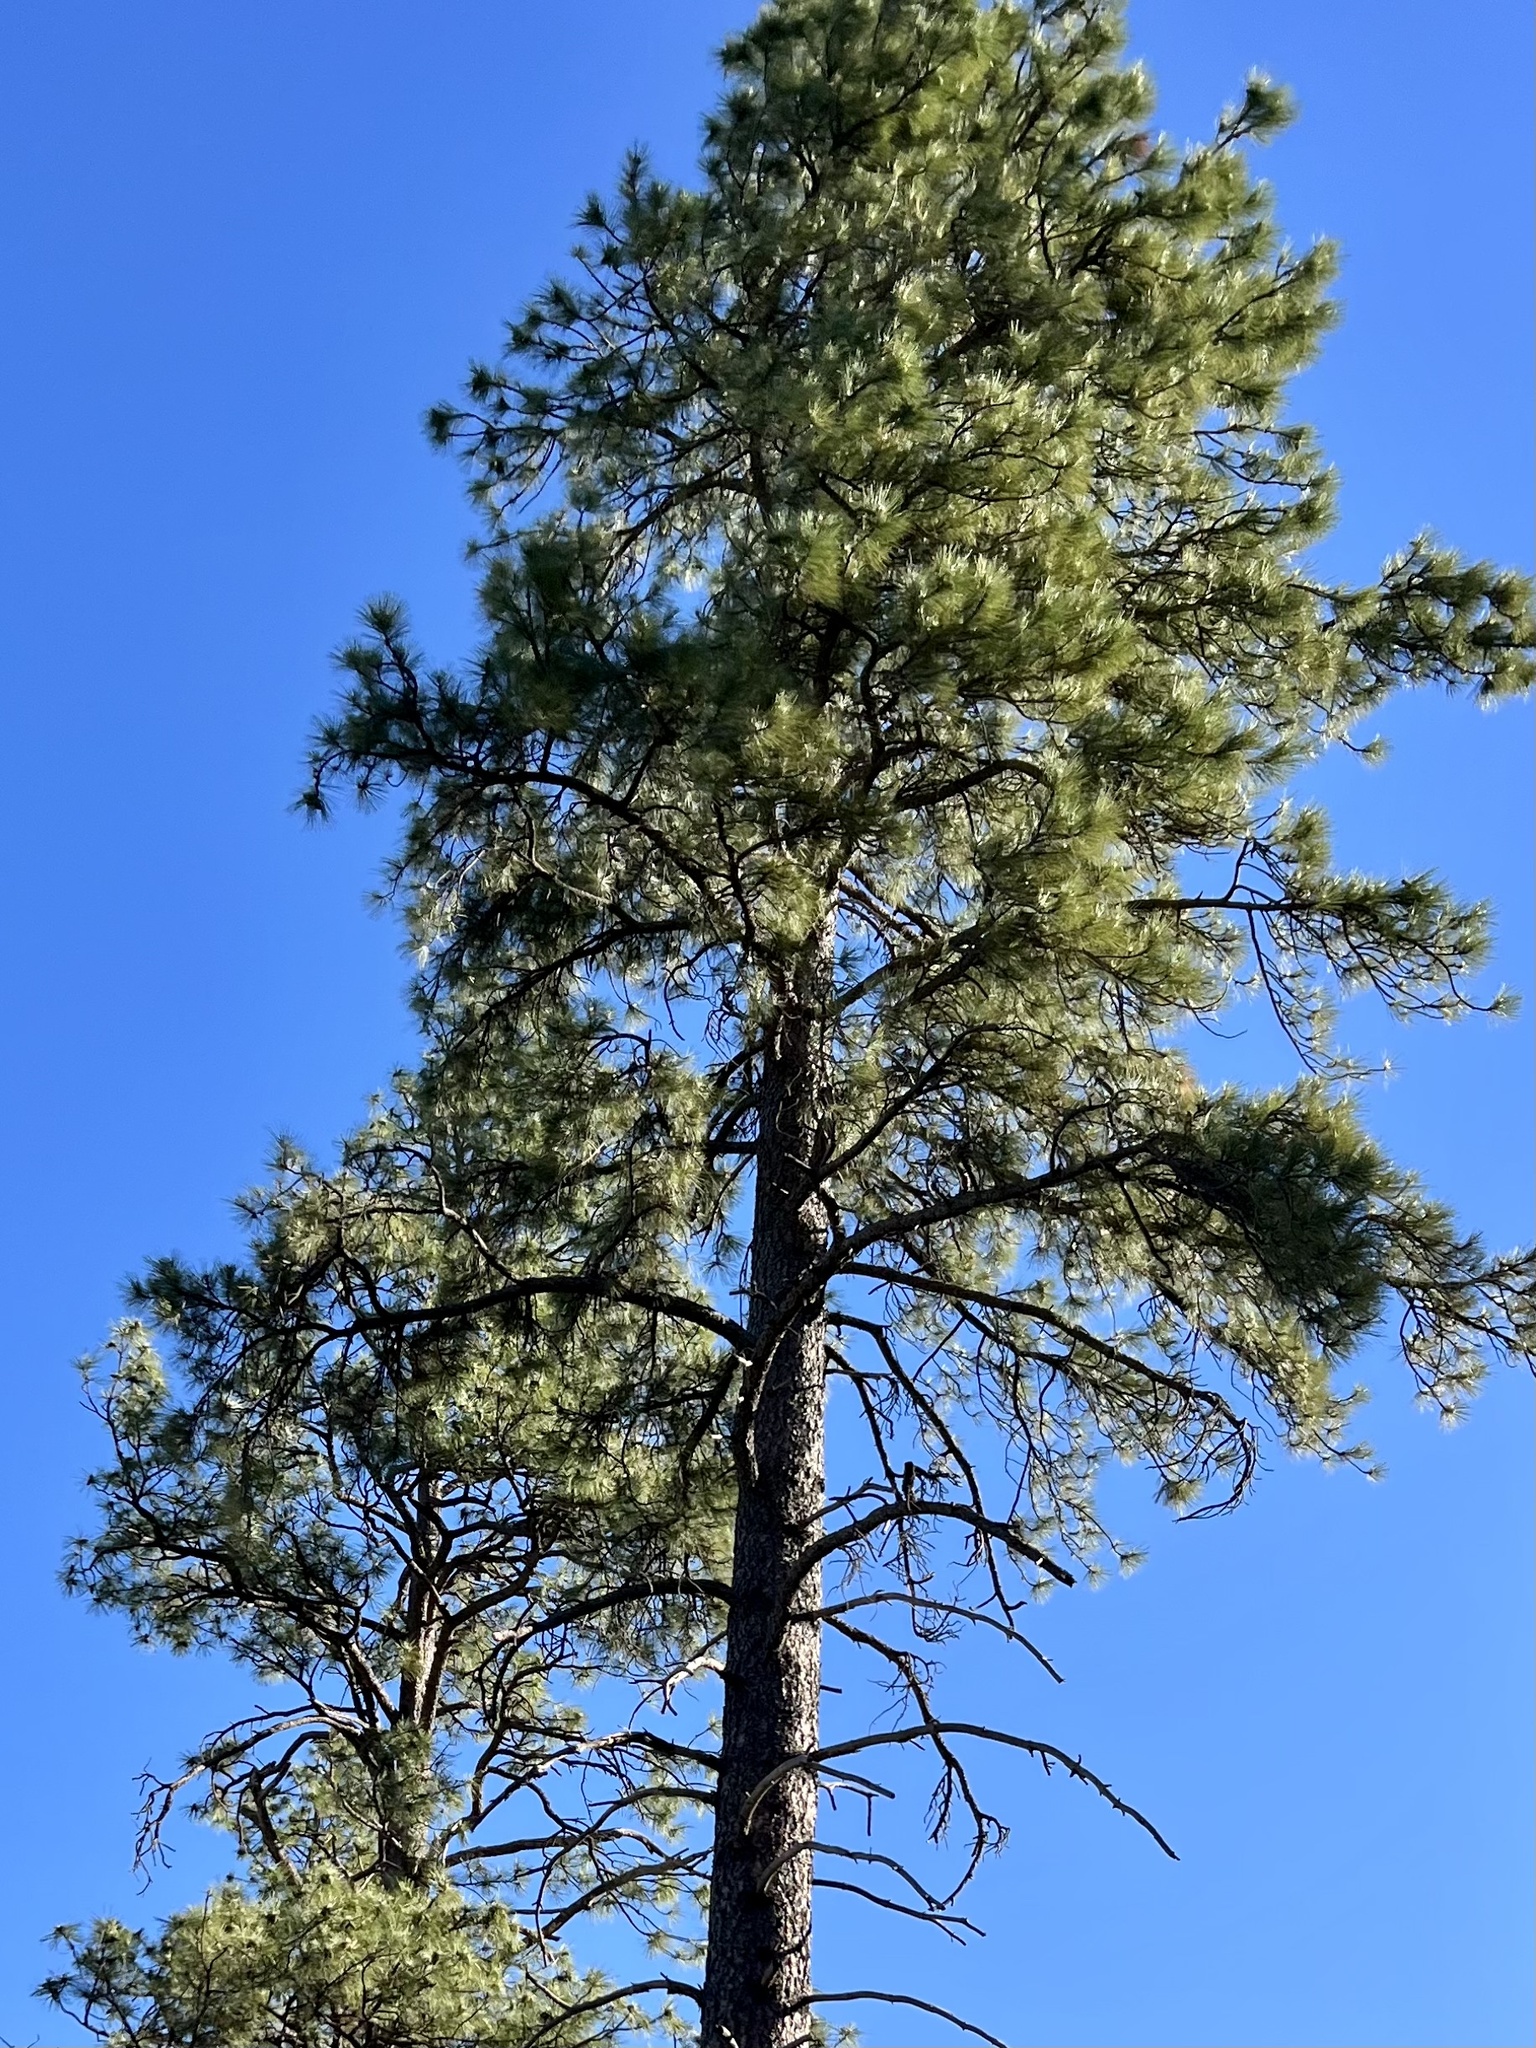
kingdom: Plantae
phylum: Tracheophyta
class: Pinopsida
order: Pinales
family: Pinaceae
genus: Pinus
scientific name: Pinus ponderosa
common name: Western yellow-pine
